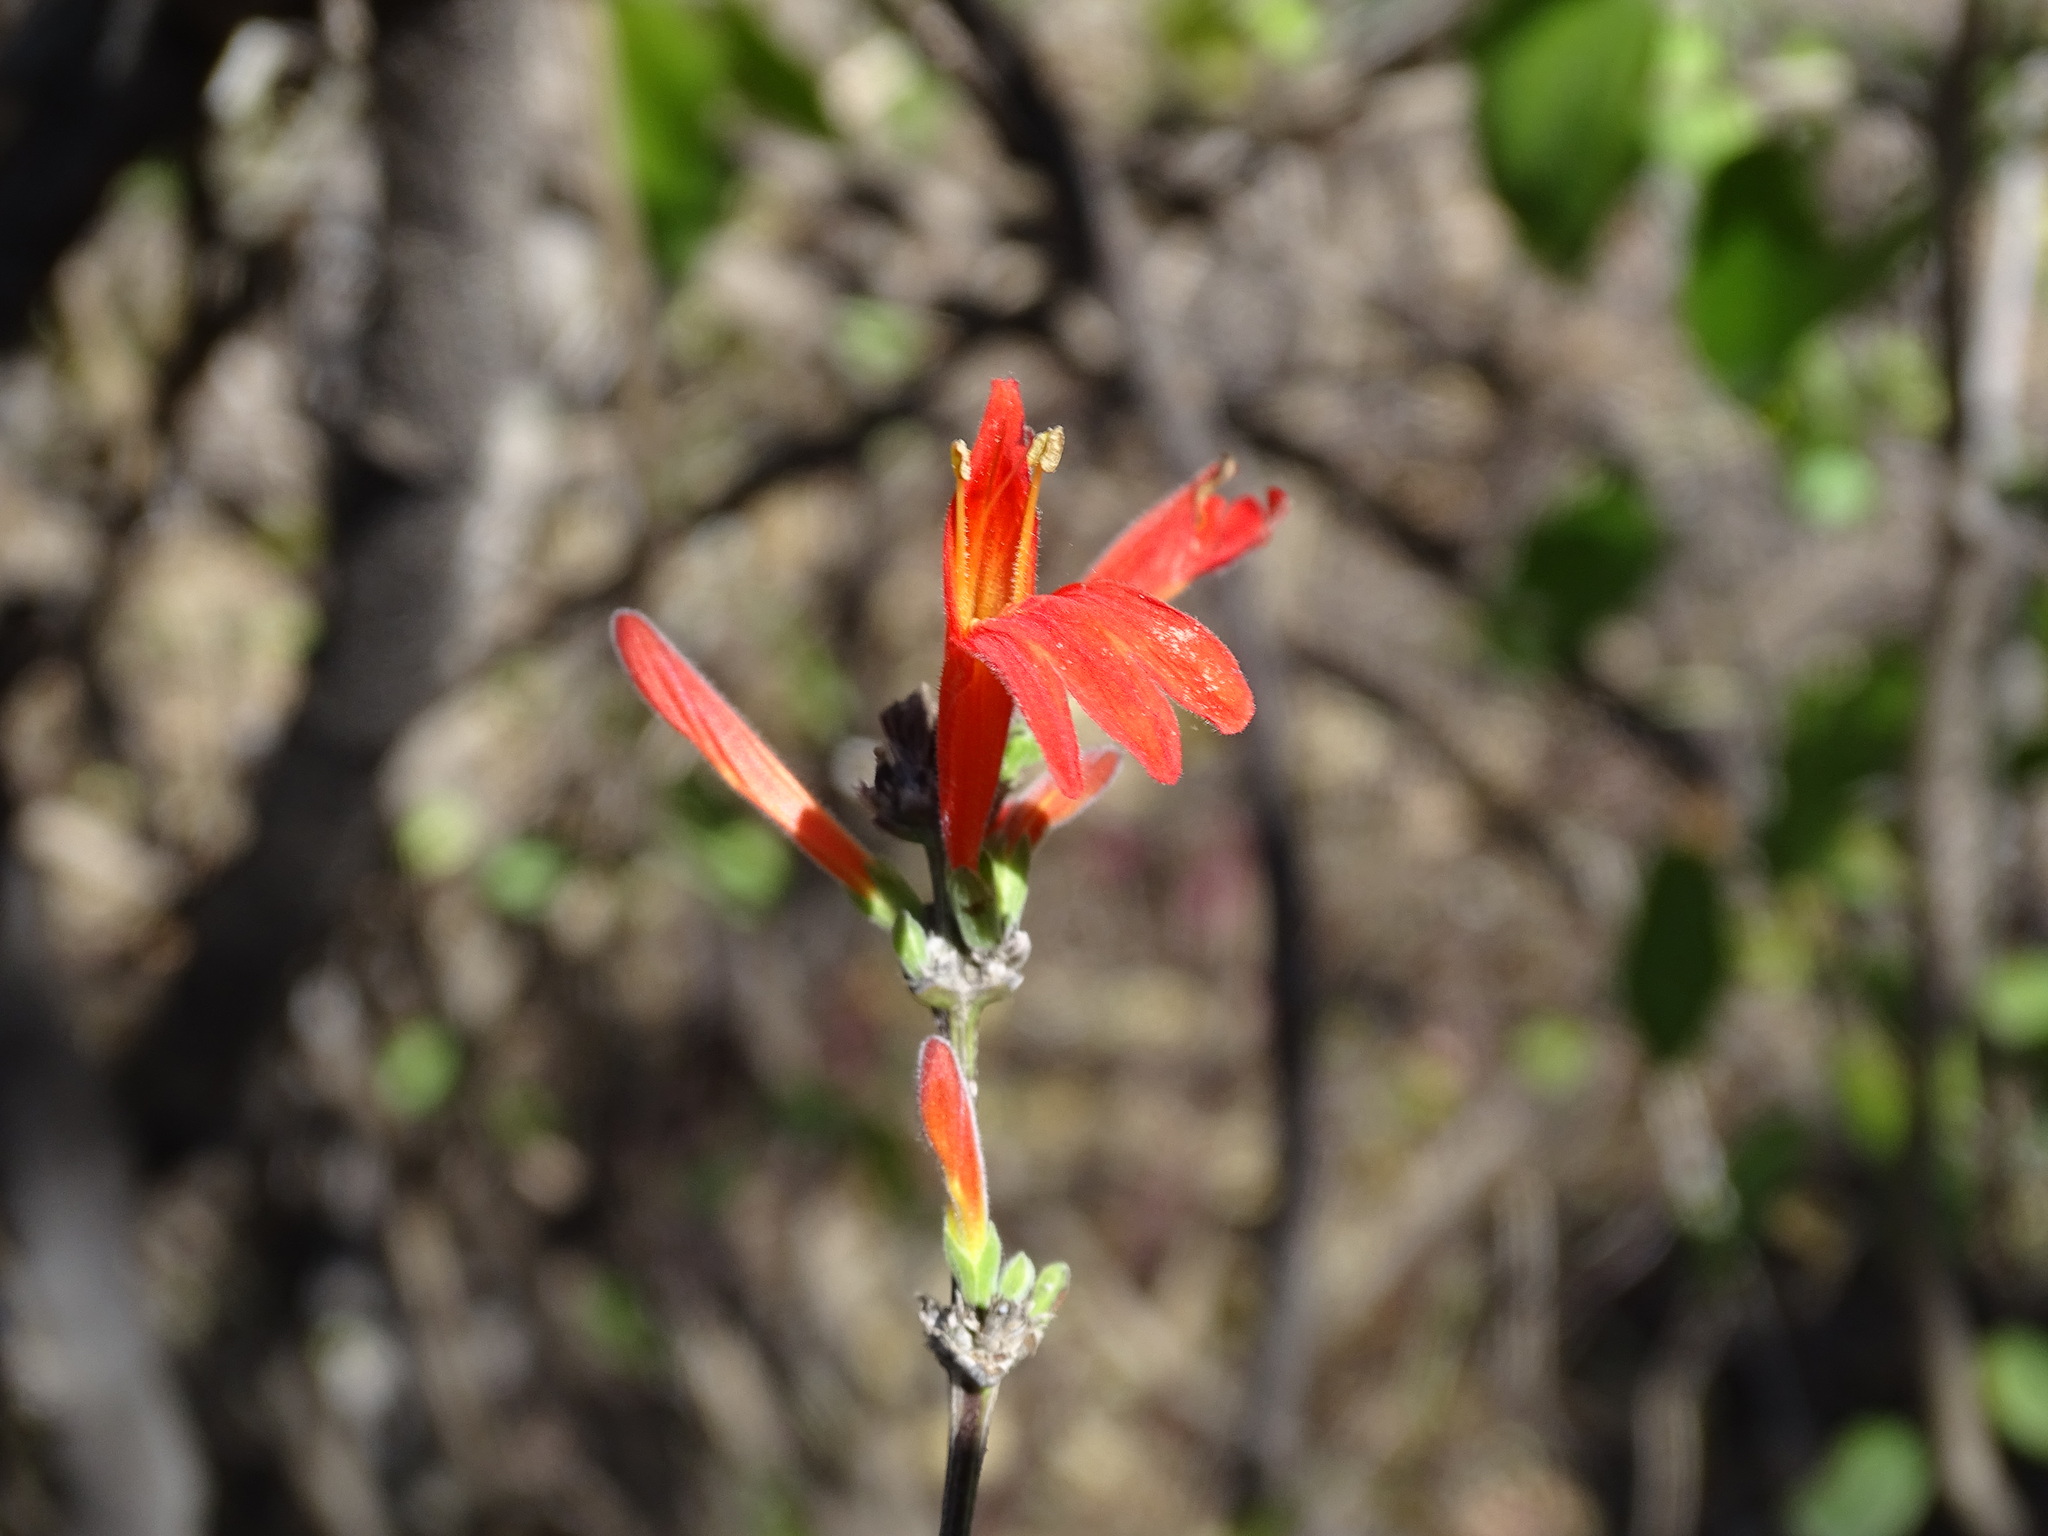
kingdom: Plantae
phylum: Tracheophyta
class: Magnoliopsida
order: Lamiales
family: Acanthaceae
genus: Dianthera
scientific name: Dianthera candicans
